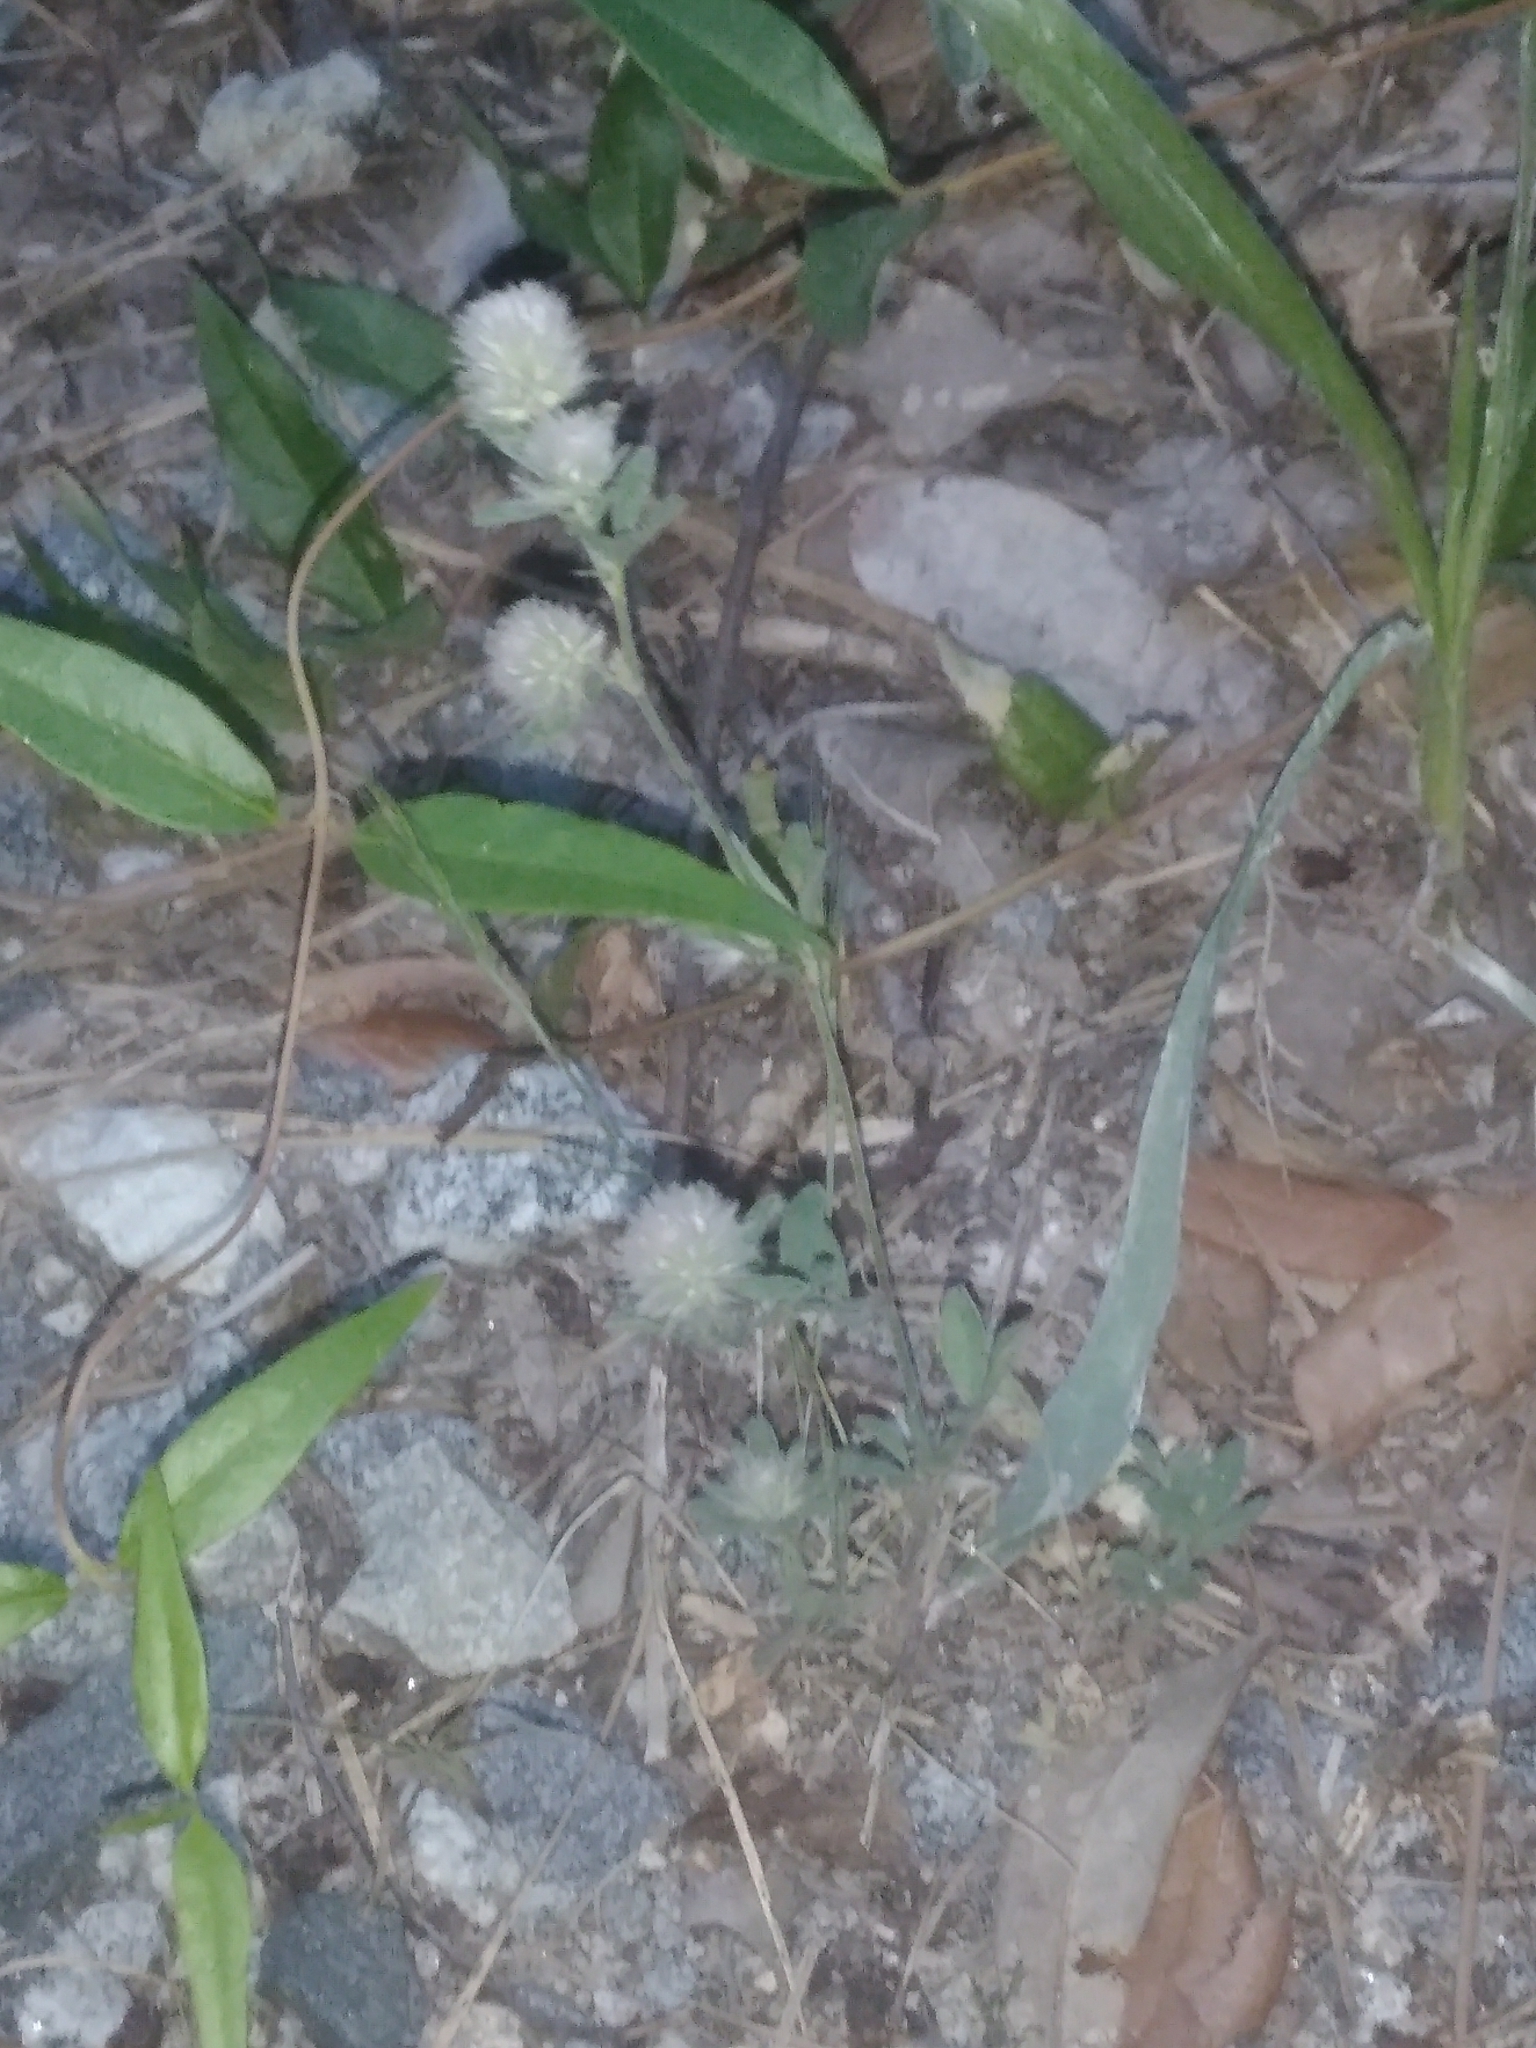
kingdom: Plantae
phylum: Tracheophyta
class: Magnoliopsida
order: Fabales
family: Fabaceae
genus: Trifolium
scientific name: Trifolium arvense
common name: Hare's-foot clover
